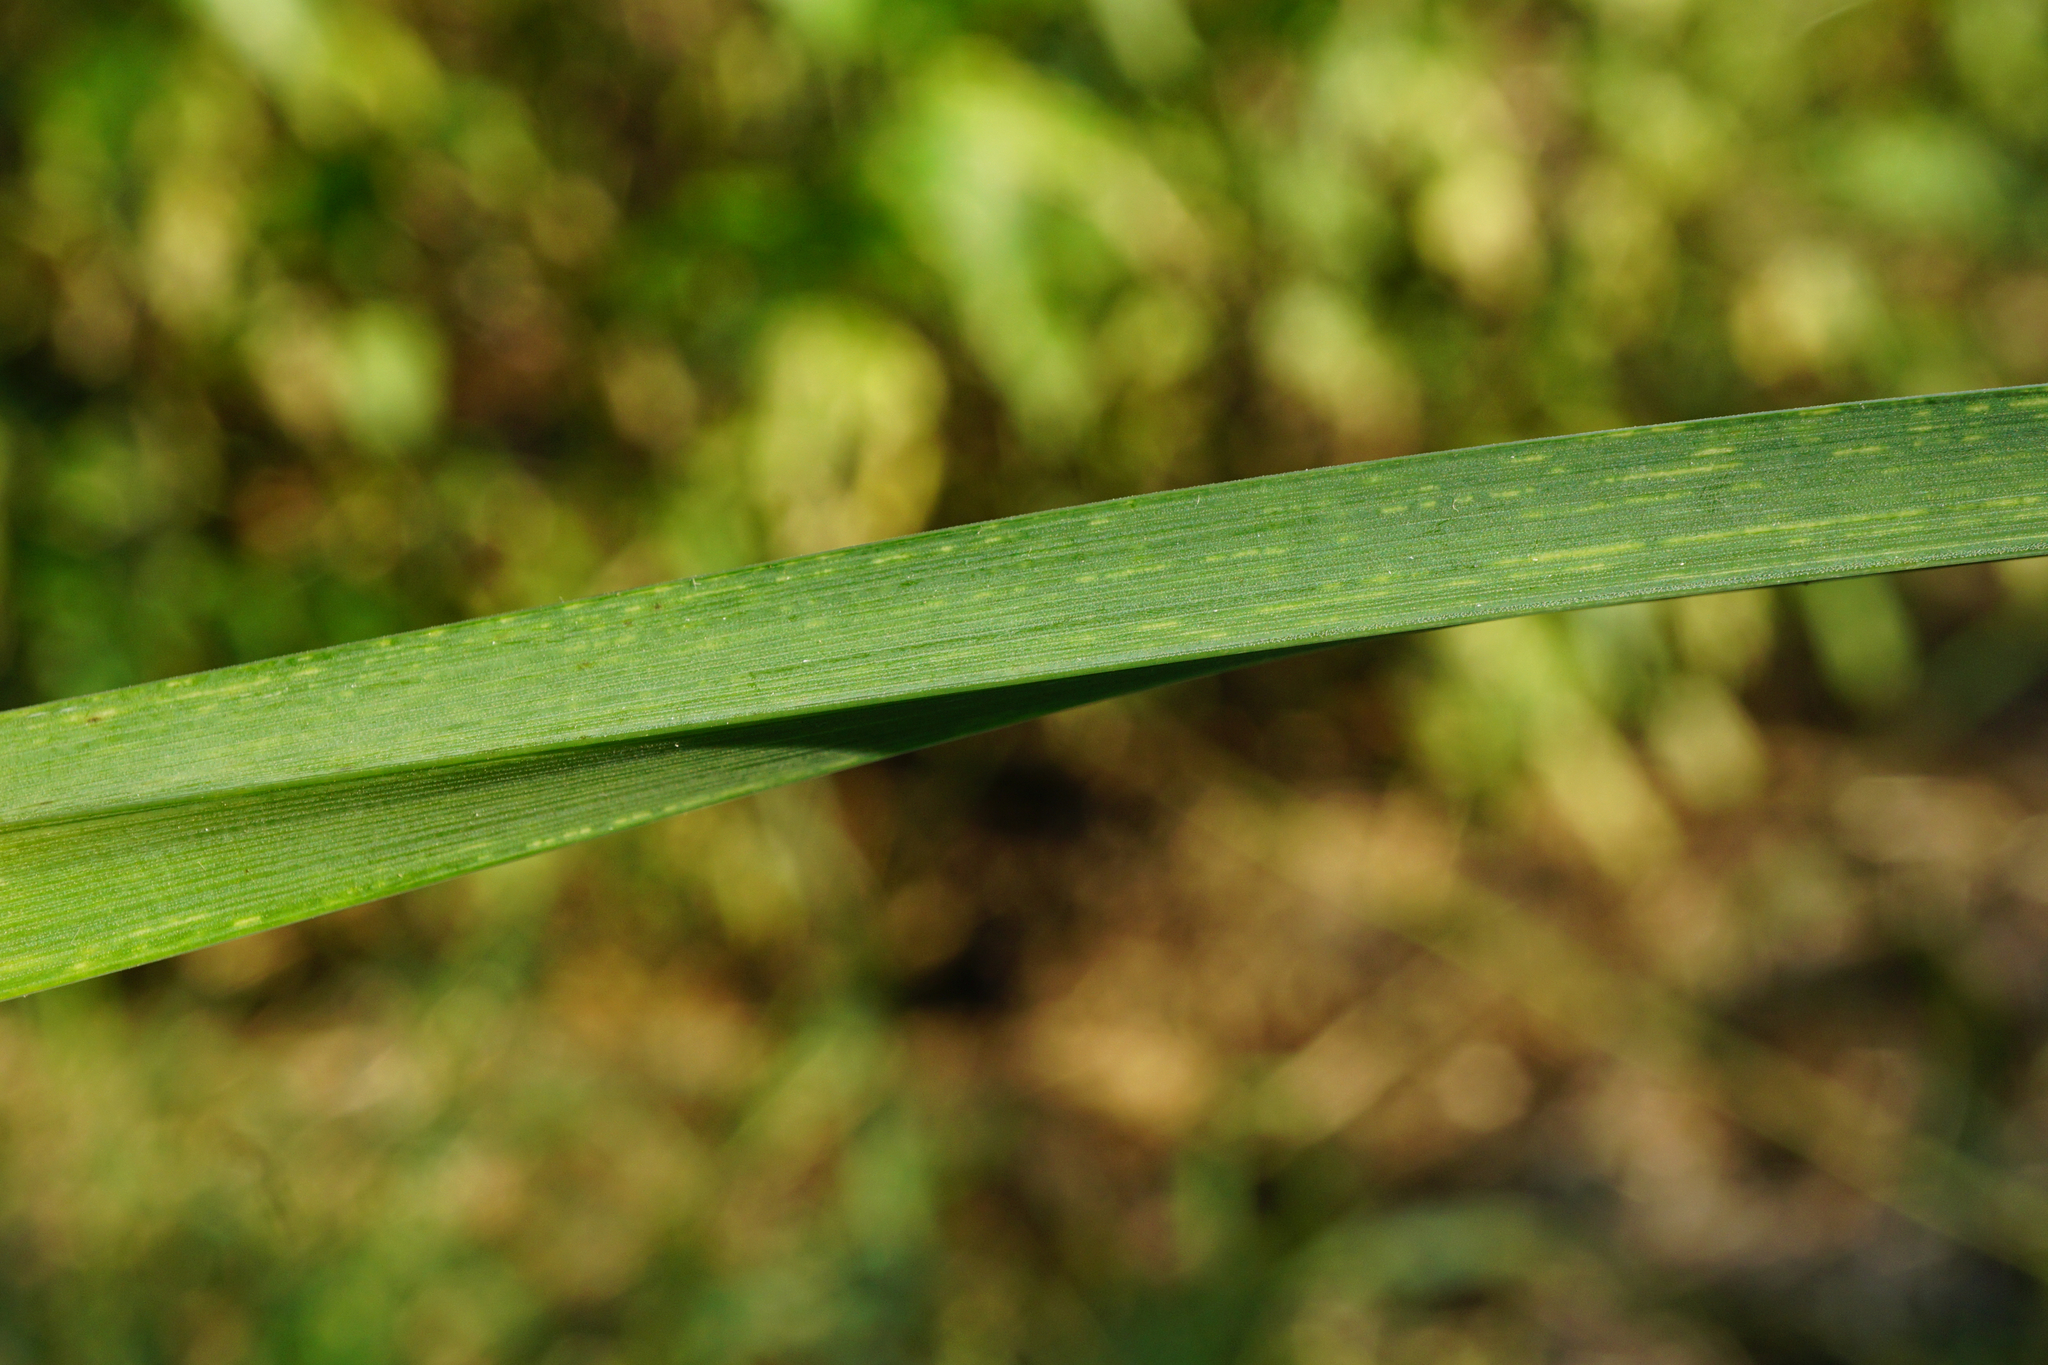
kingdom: Plantae
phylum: Tracheophyta
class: Liliopsida
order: Poales
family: Poaceae
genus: Dactylis
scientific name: Dactylis glomerata
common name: Orchardgrass
